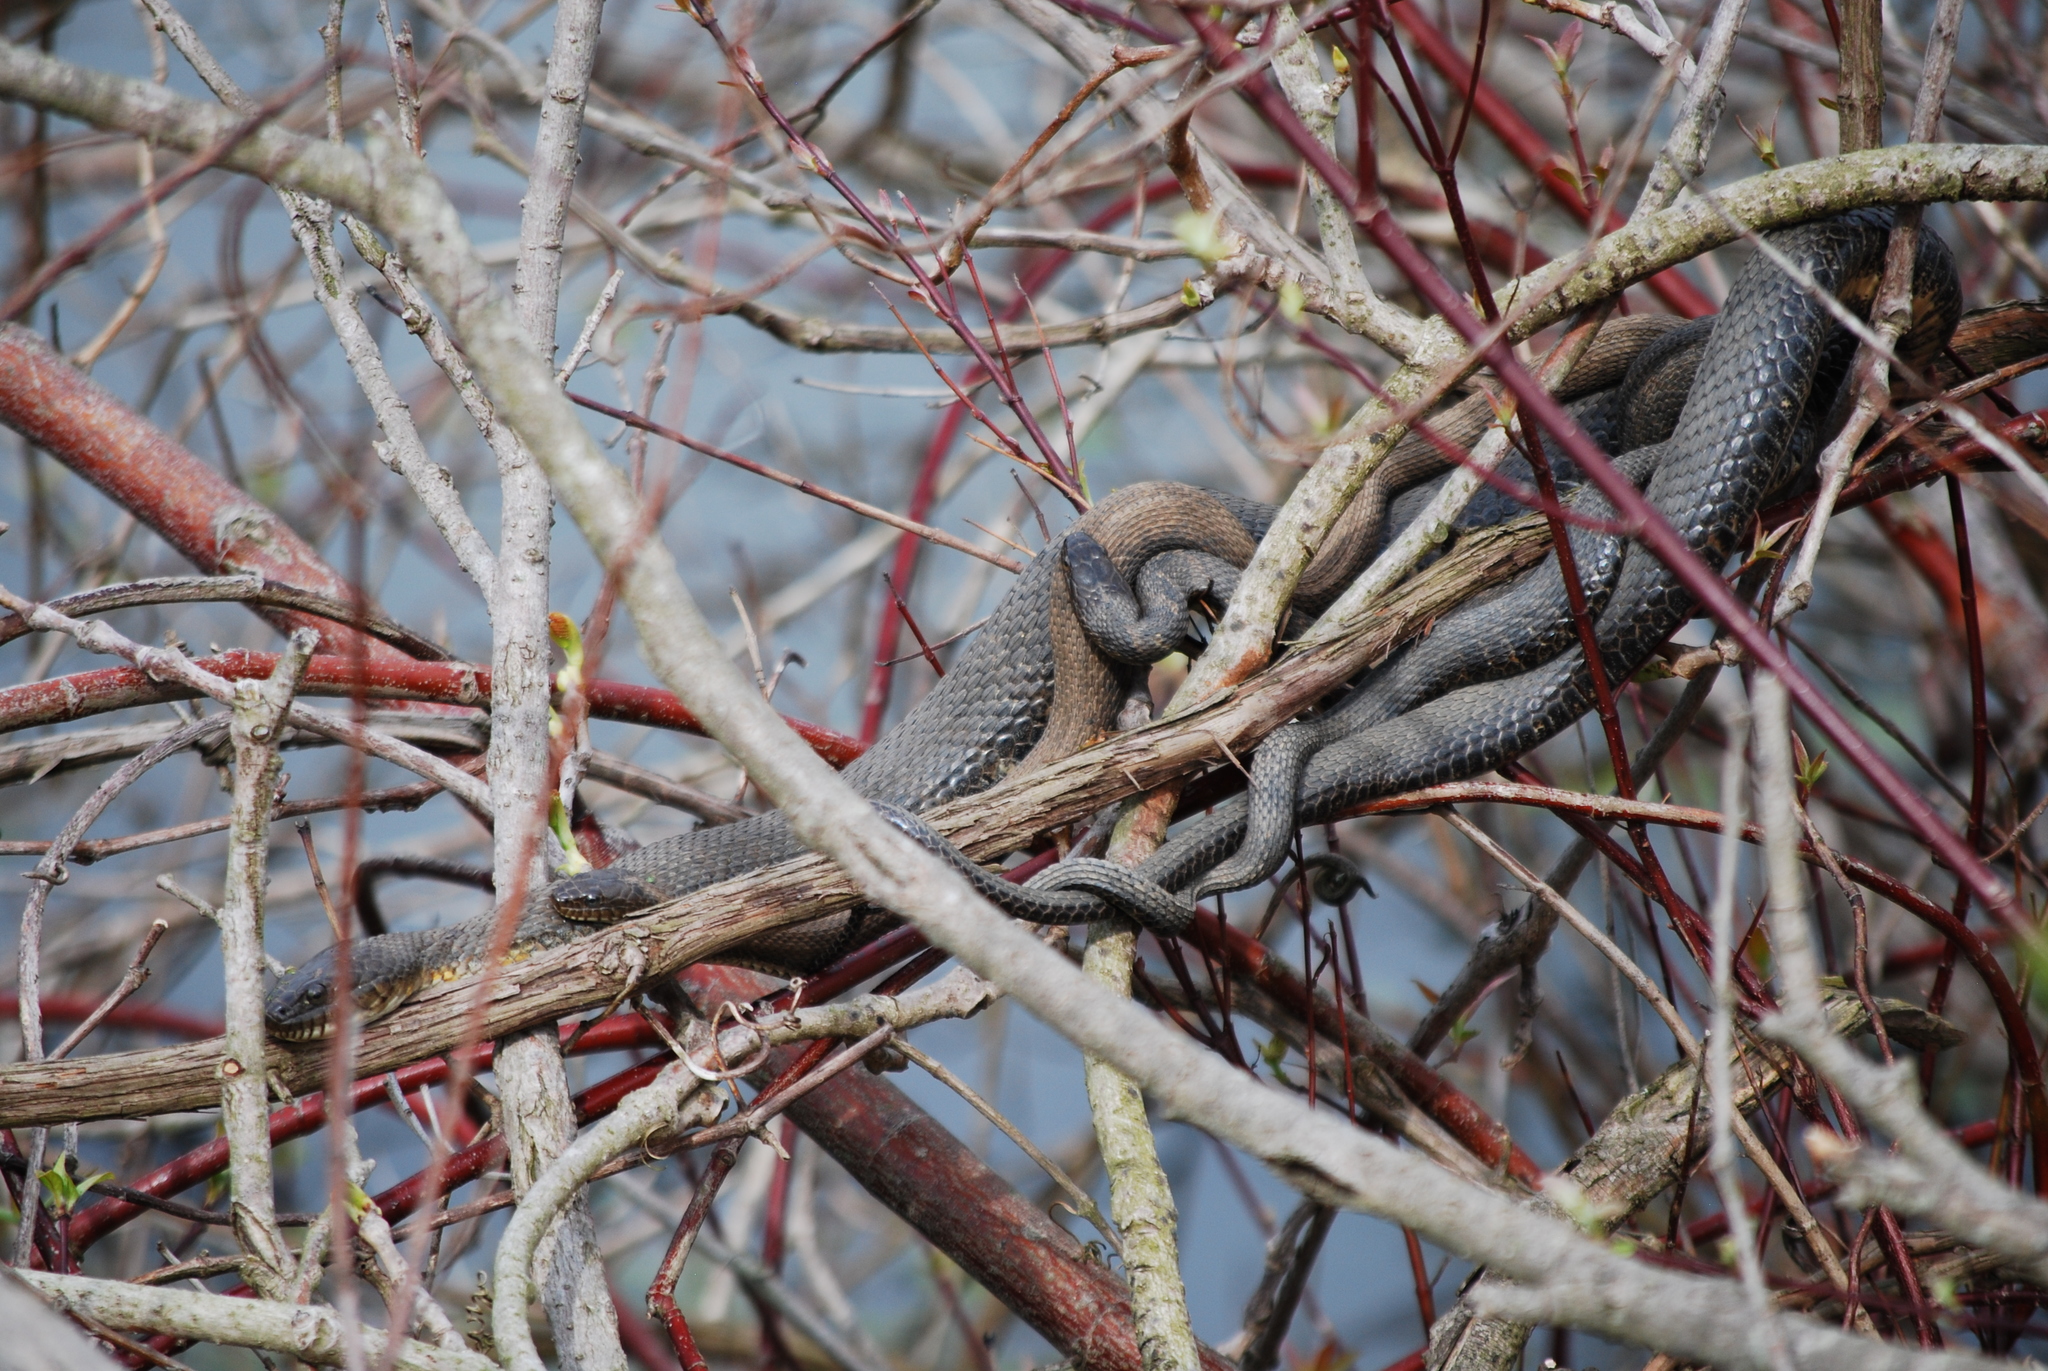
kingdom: Animalia
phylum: Chordata
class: Squamata
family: Colubridae
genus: Nerodia
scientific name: Nerodia sipedon
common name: Northern water snake
